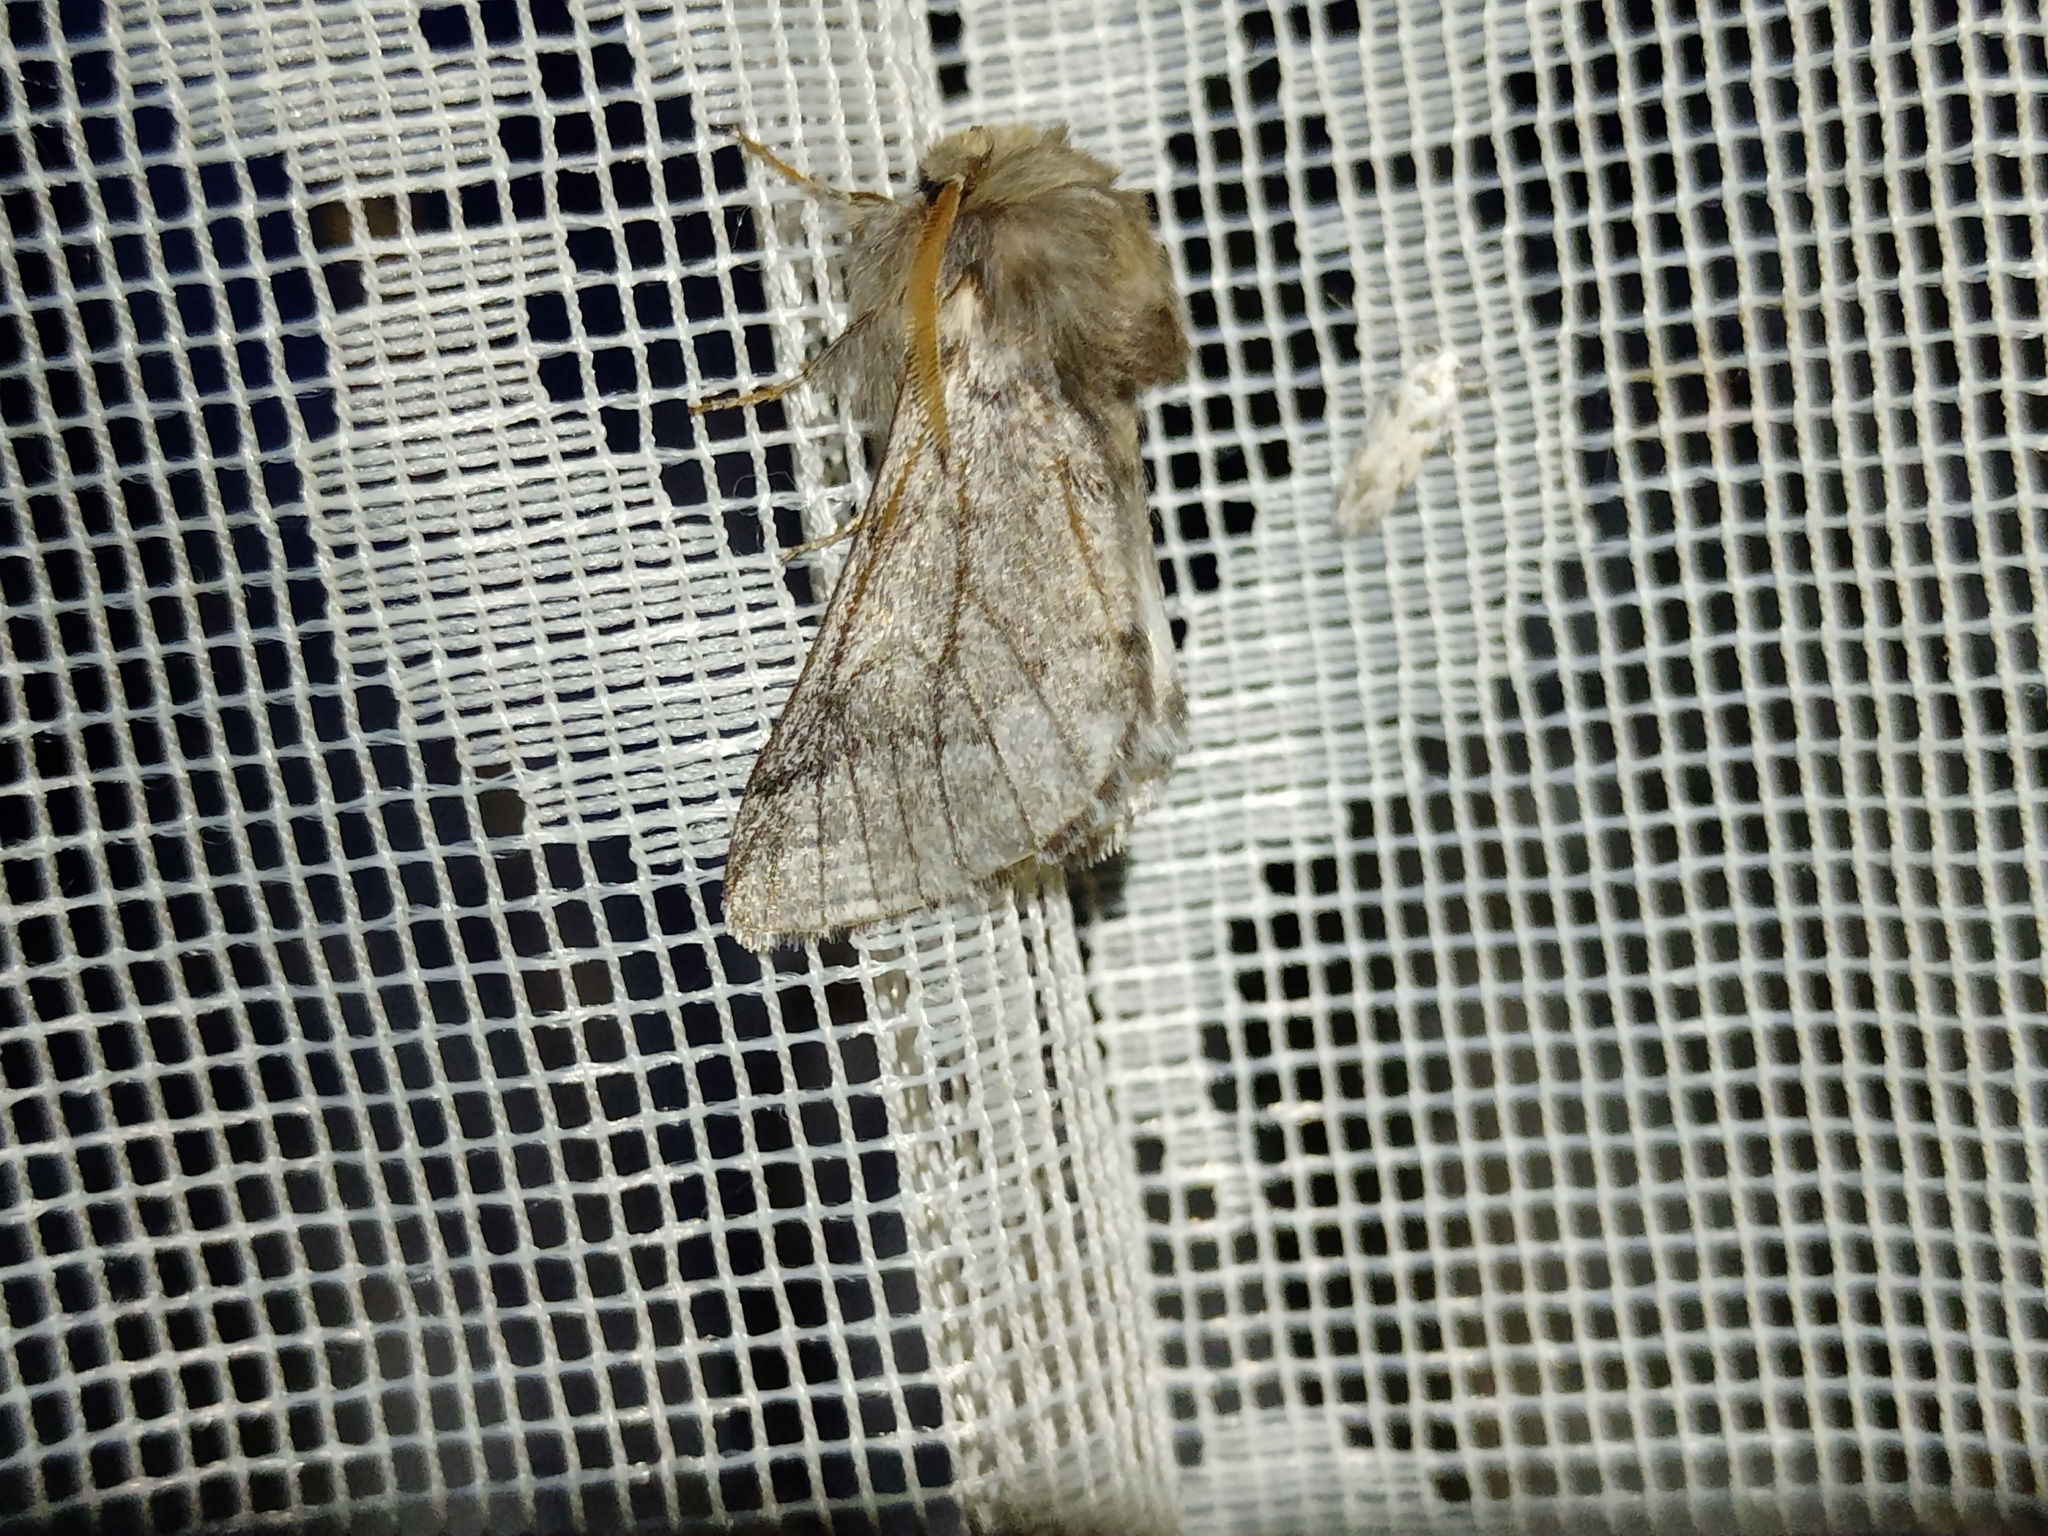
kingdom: Animalia
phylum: Arthropoda
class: Insecta
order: Lepidoptera
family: Notodontidae
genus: Thaumetopoea
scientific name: Thaumetopoea pityocampa
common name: Pine processionary
